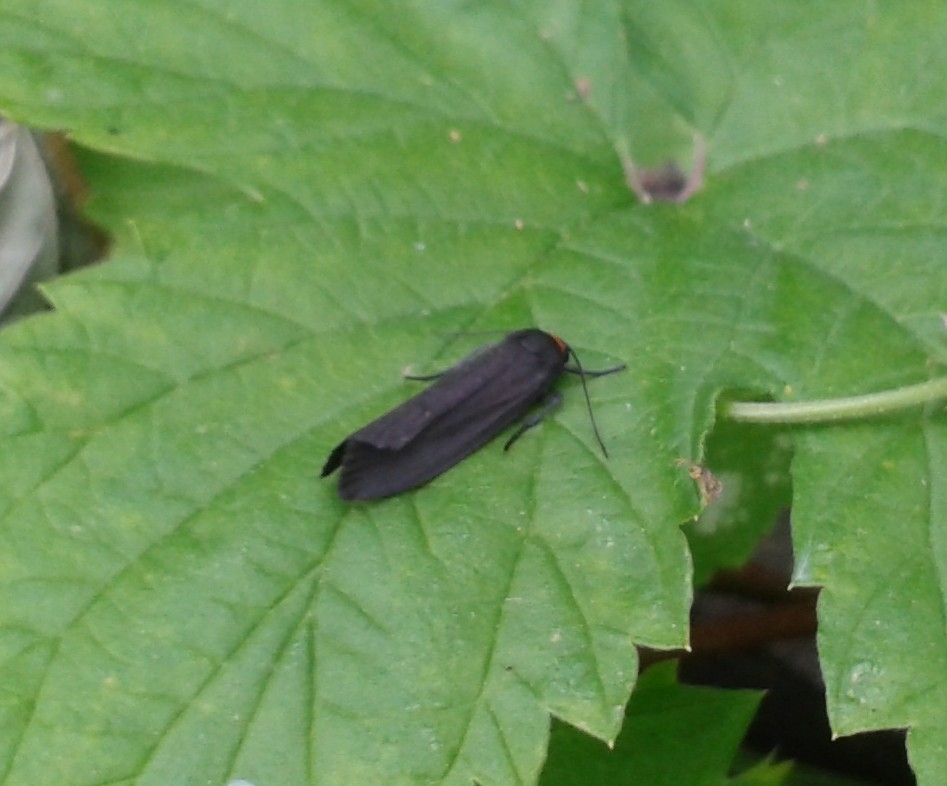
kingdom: Animalia
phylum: Arthropoda
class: Insecta
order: Lepidoptera
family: Erebidae
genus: Atolmis
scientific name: Atolmis rubricollis
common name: Red-necked footman
